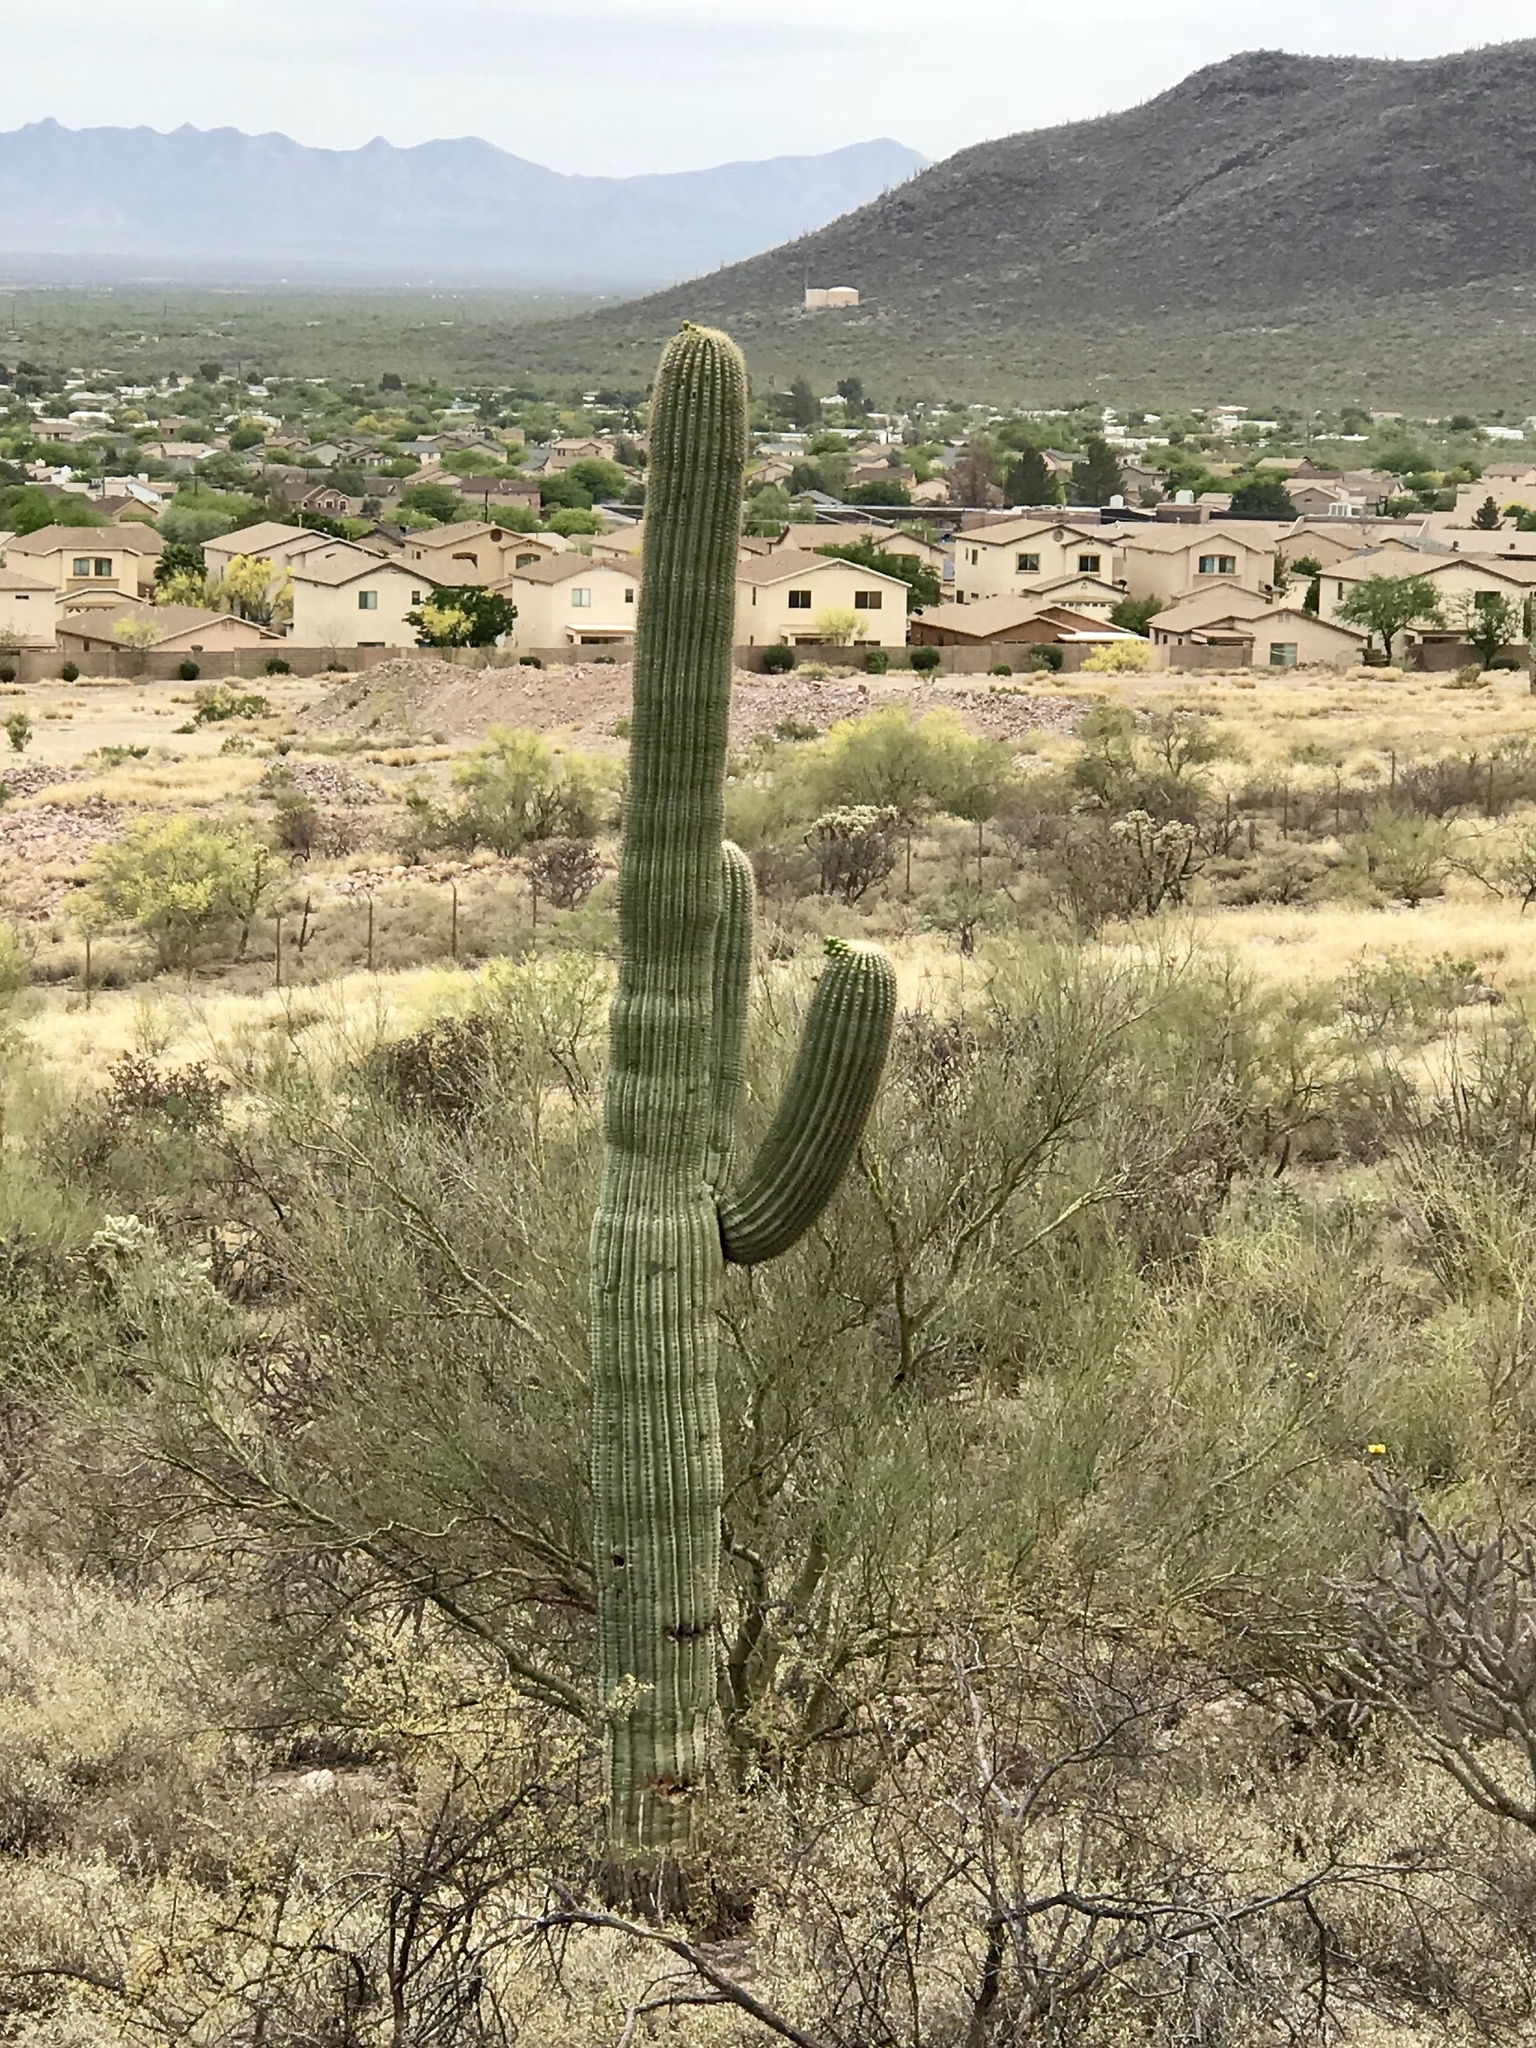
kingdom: Plantae
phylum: Tracheophyta
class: Magnoliopsida
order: Caryophyllales
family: Cactaceae
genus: Carnegiea
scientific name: Carnegiea gigantea
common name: Saguaro
